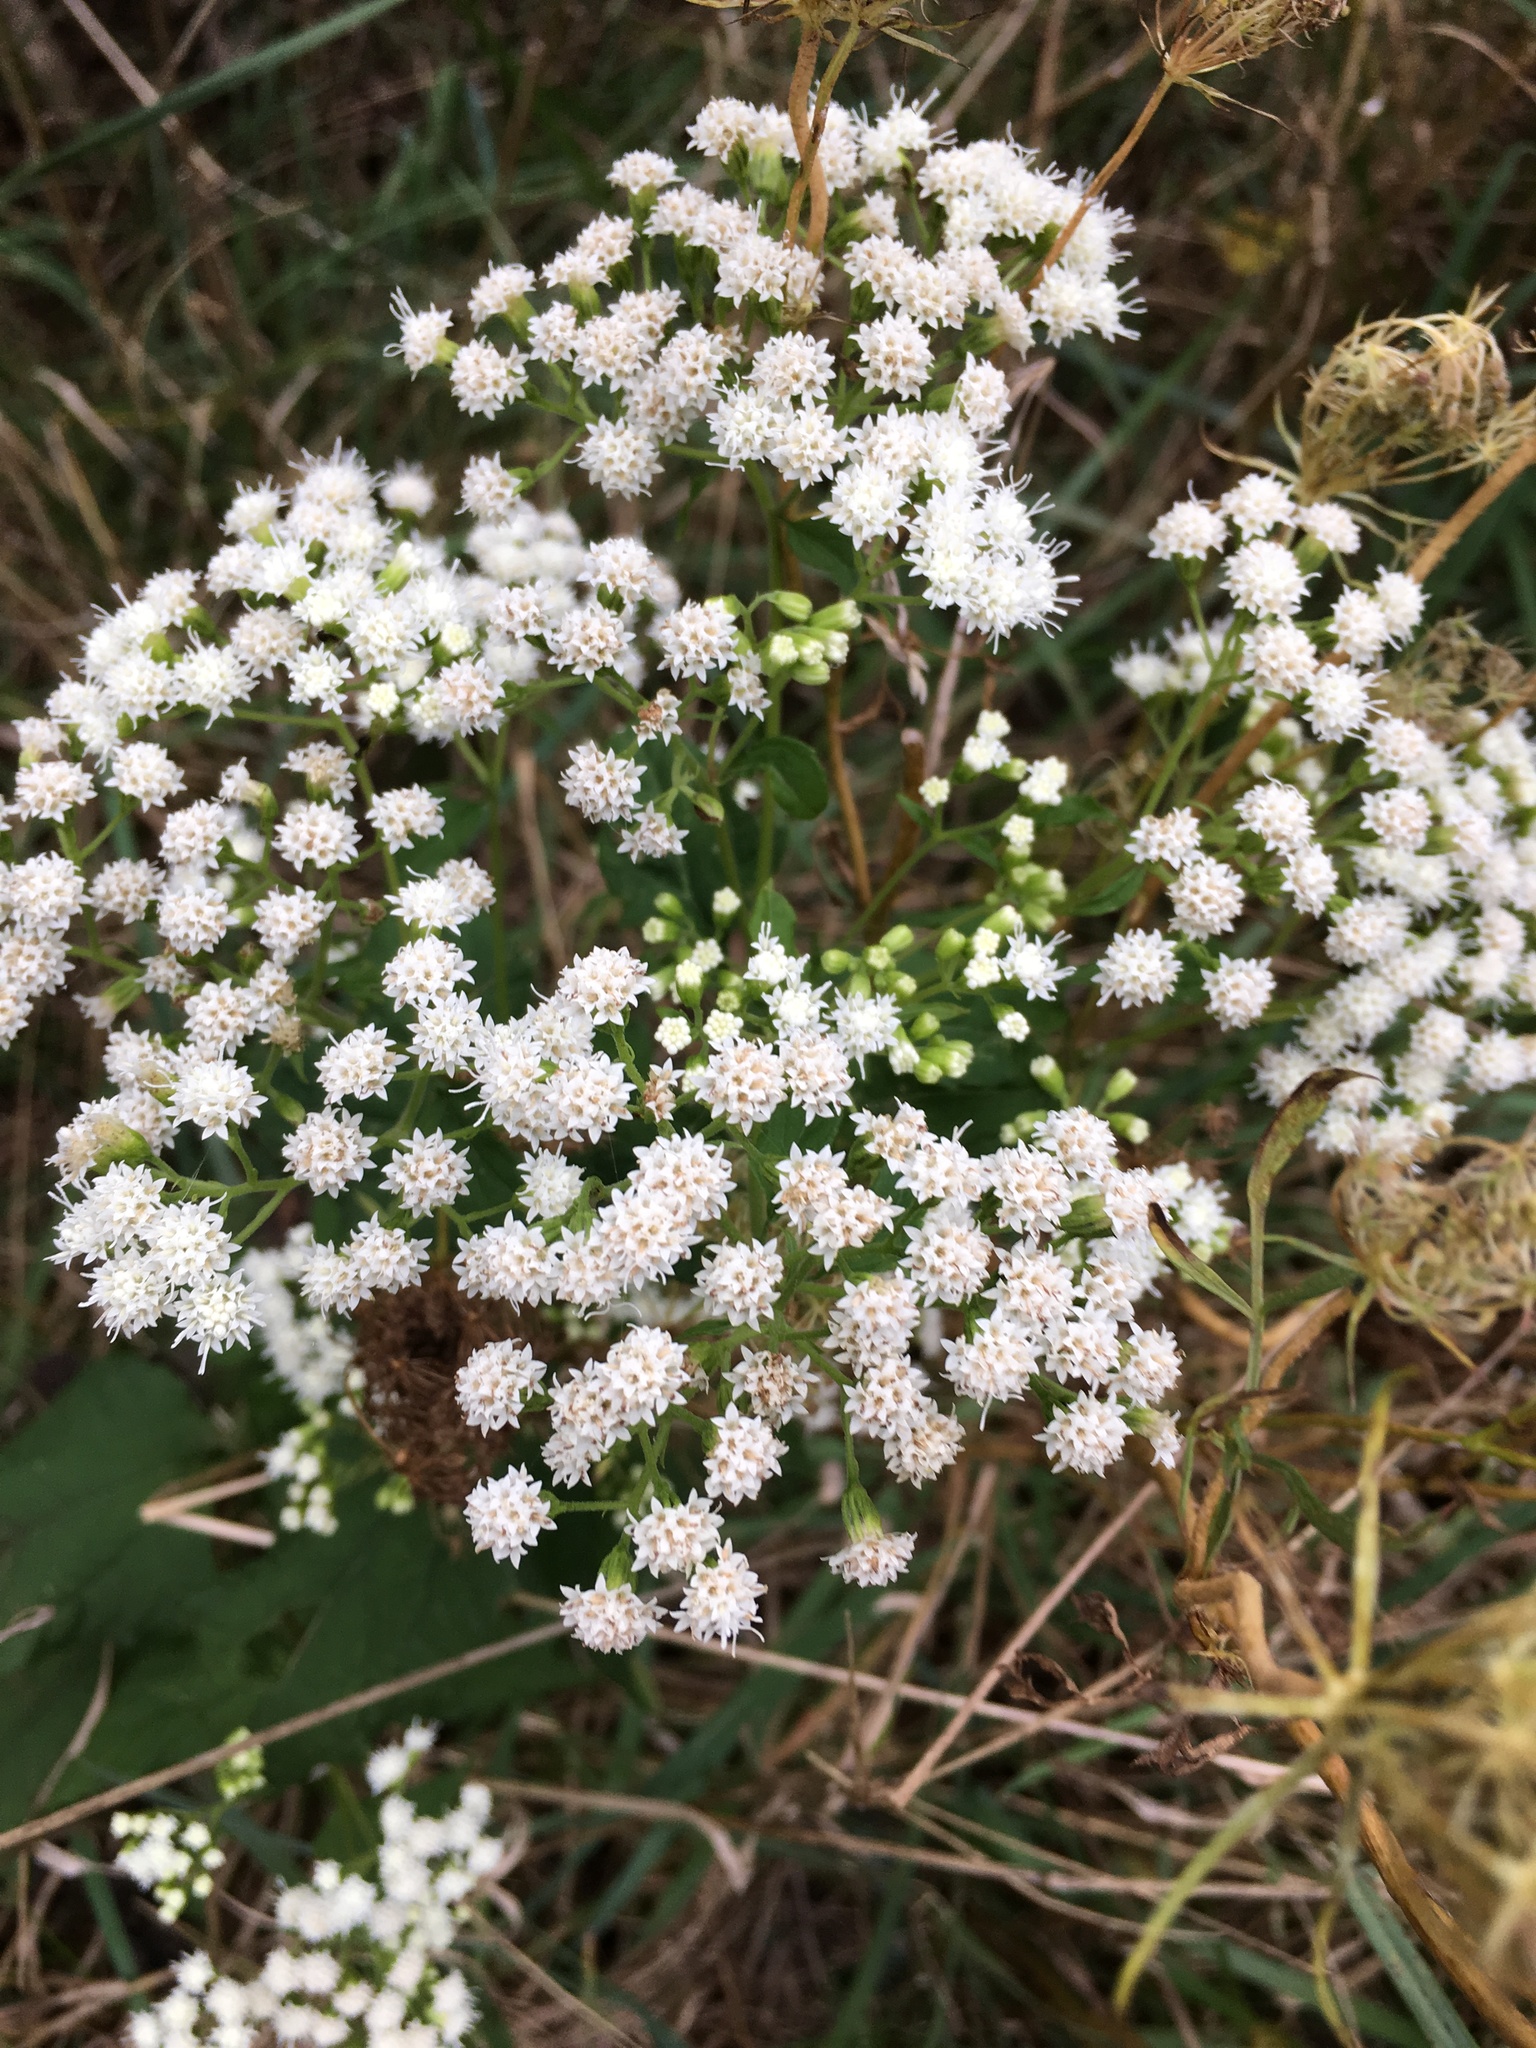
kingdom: Plantae
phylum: Tracheophyta
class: Magnoliopsida
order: Asterales
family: Asteraceae
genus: Ageratina
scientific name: Ageratina altissima
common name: White snakeroot
